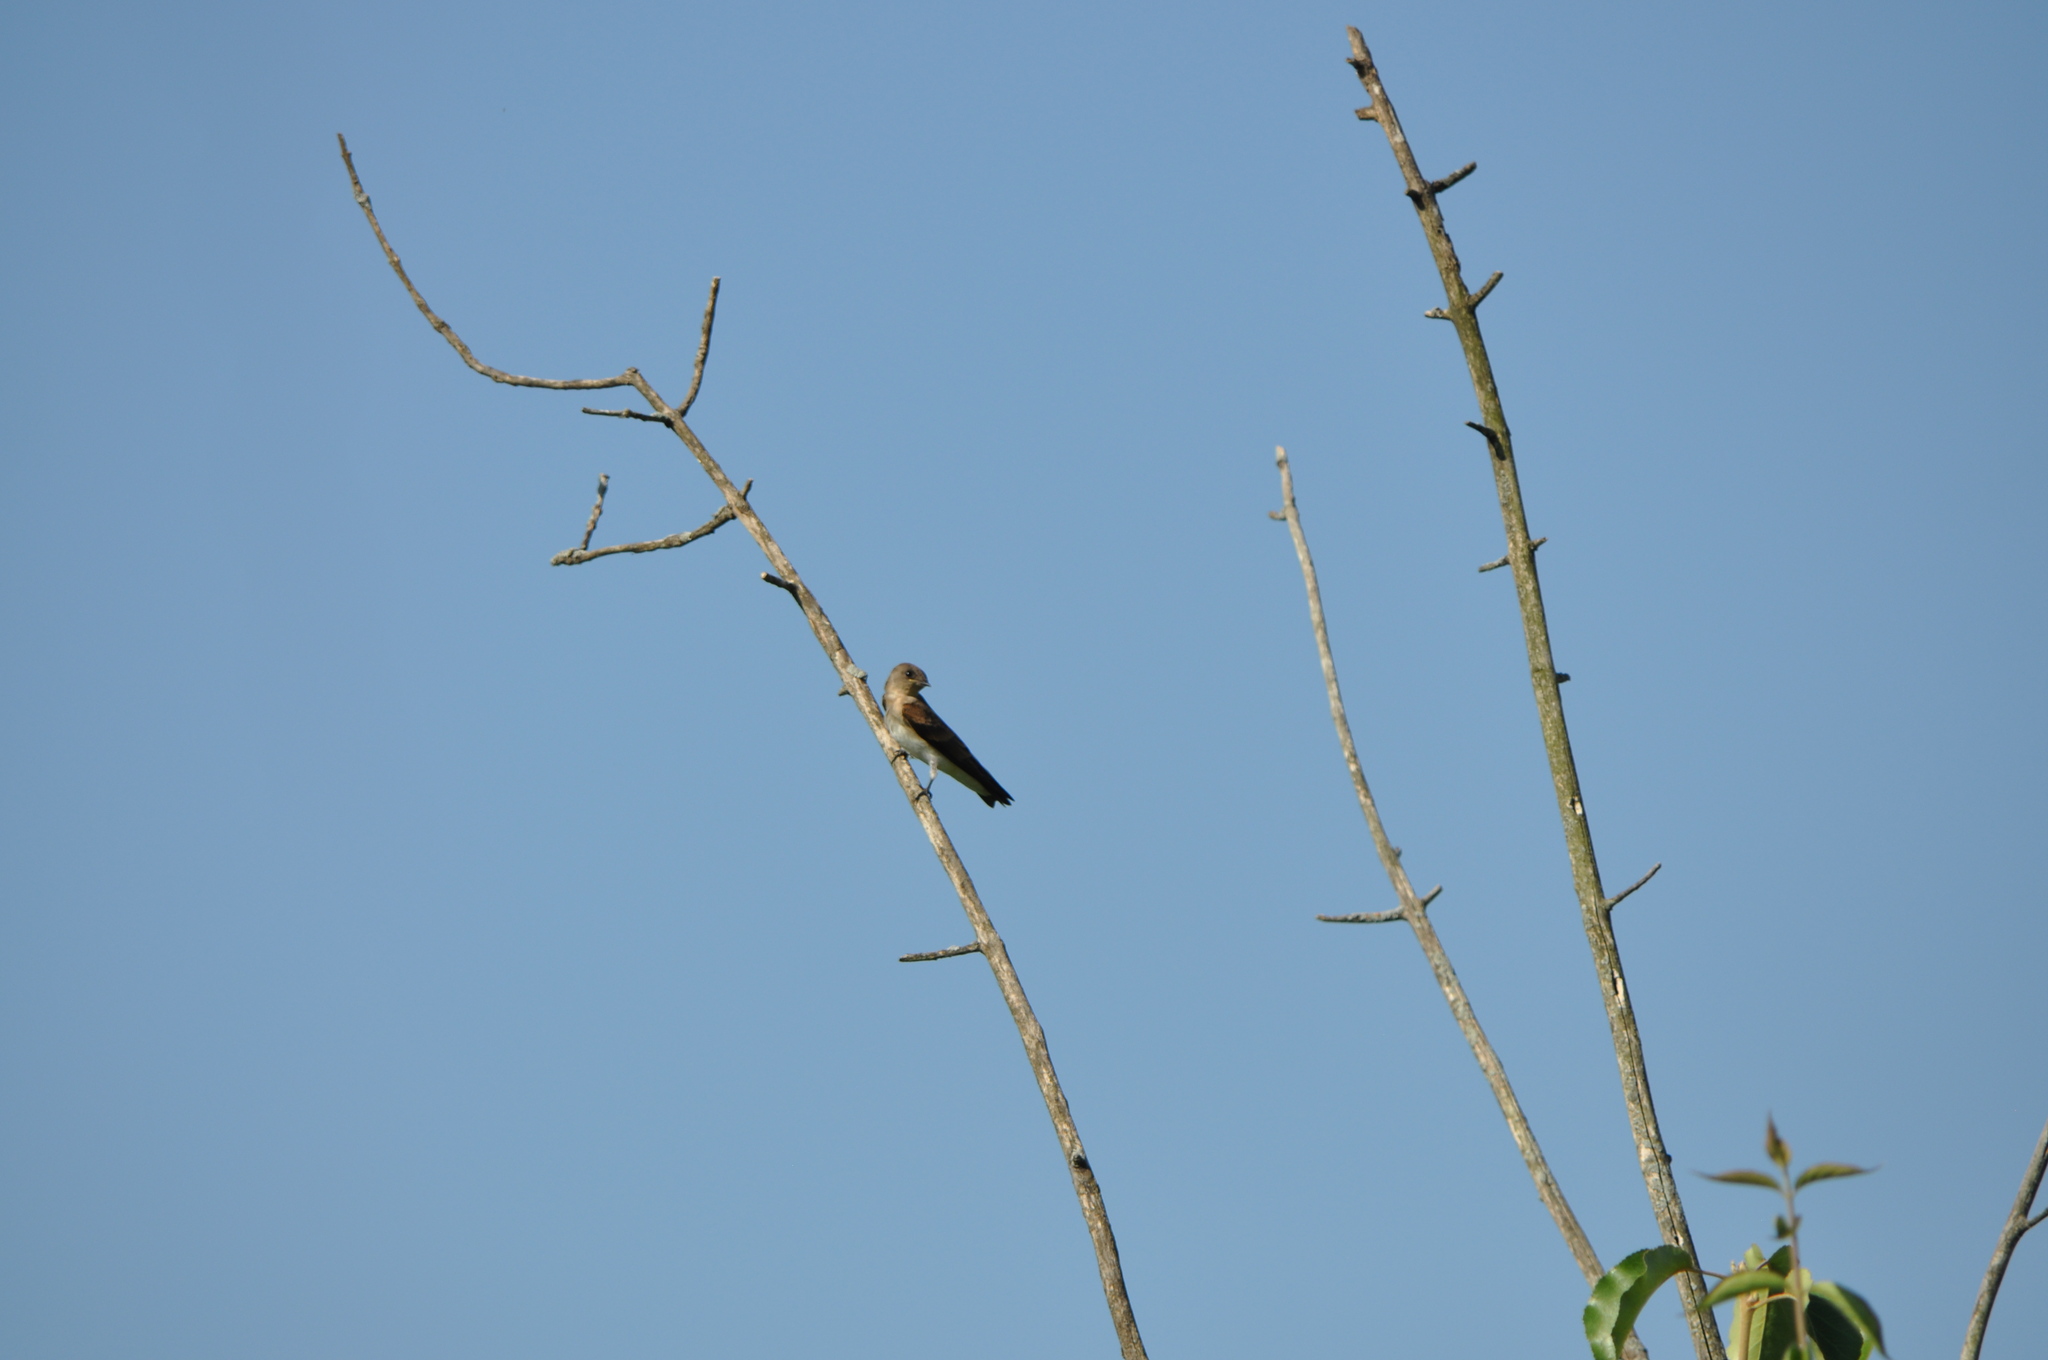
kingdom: Animalia
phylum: Chordata
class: Aves
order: Passeriformes
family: Hirundinidae
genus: Stelgidopteryx
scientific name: Stelgidopteryx serripennis
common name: Northern rough-winged swallow
